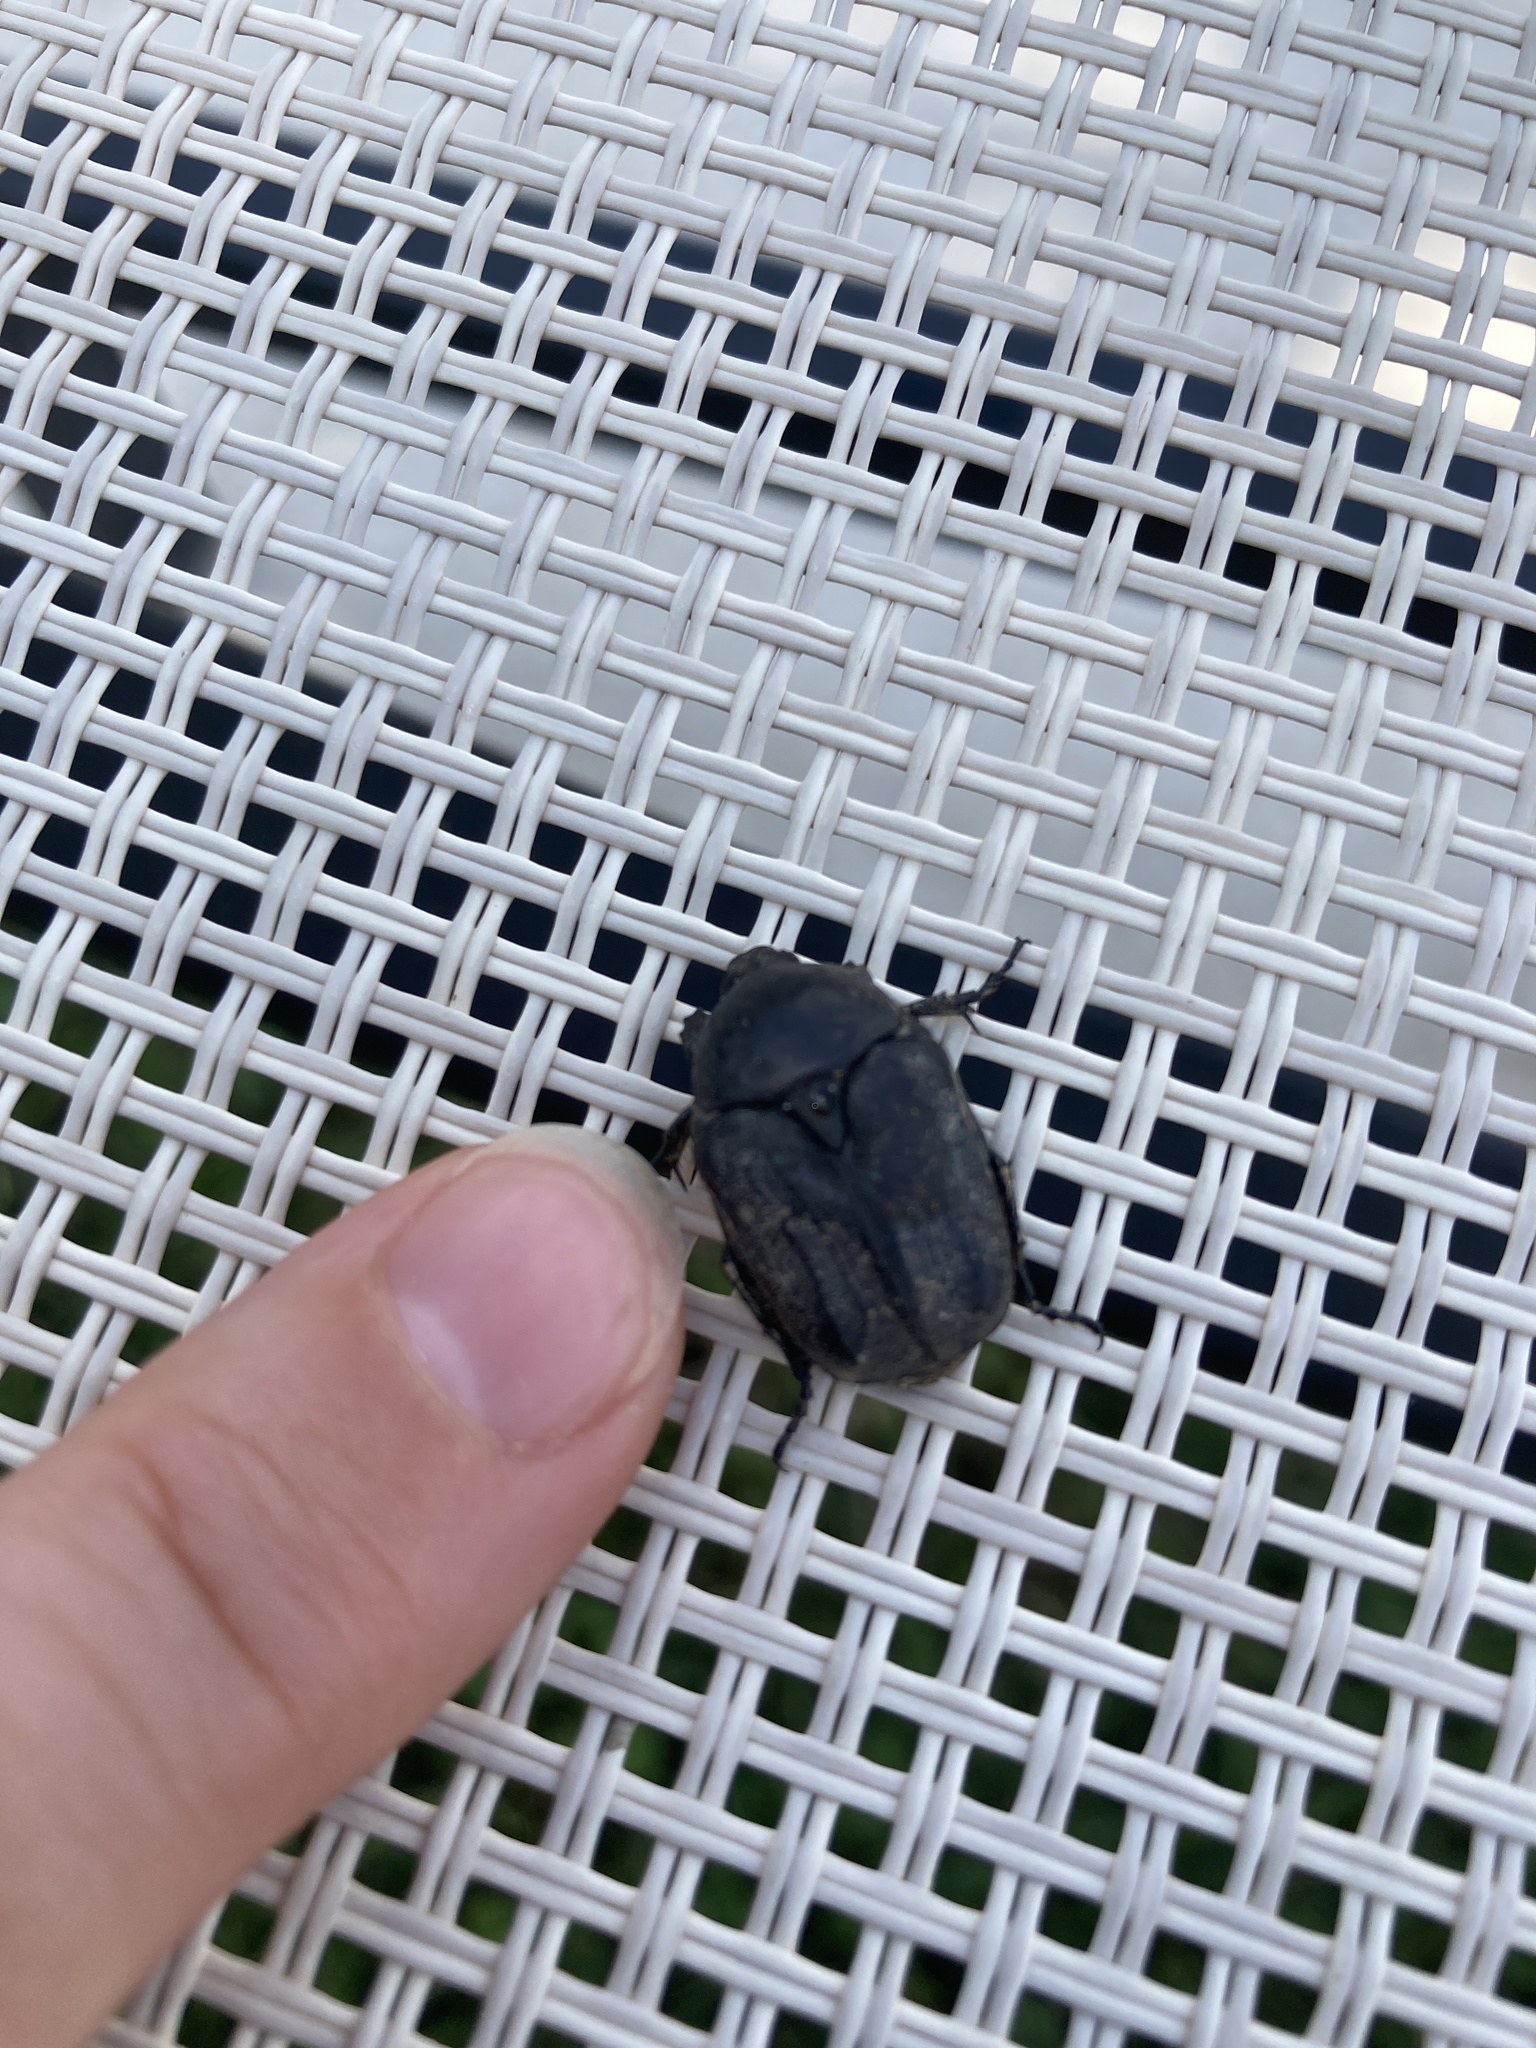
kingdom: Animalia
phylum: Arthropoda
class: Insecta
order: Coleoptera
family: Scarabaeidae
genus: Protaetia
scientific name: Protaetia morio
